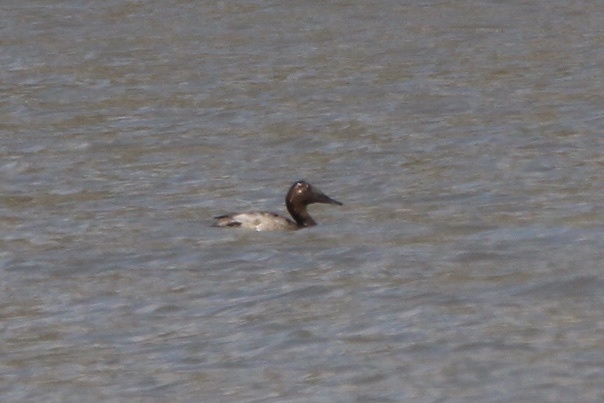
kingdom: Animalia
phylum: Chordata
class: Aves
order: Anseriformes
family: Anatidae
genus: Aythya
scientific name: Aythya valisineria
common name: Canvasback
